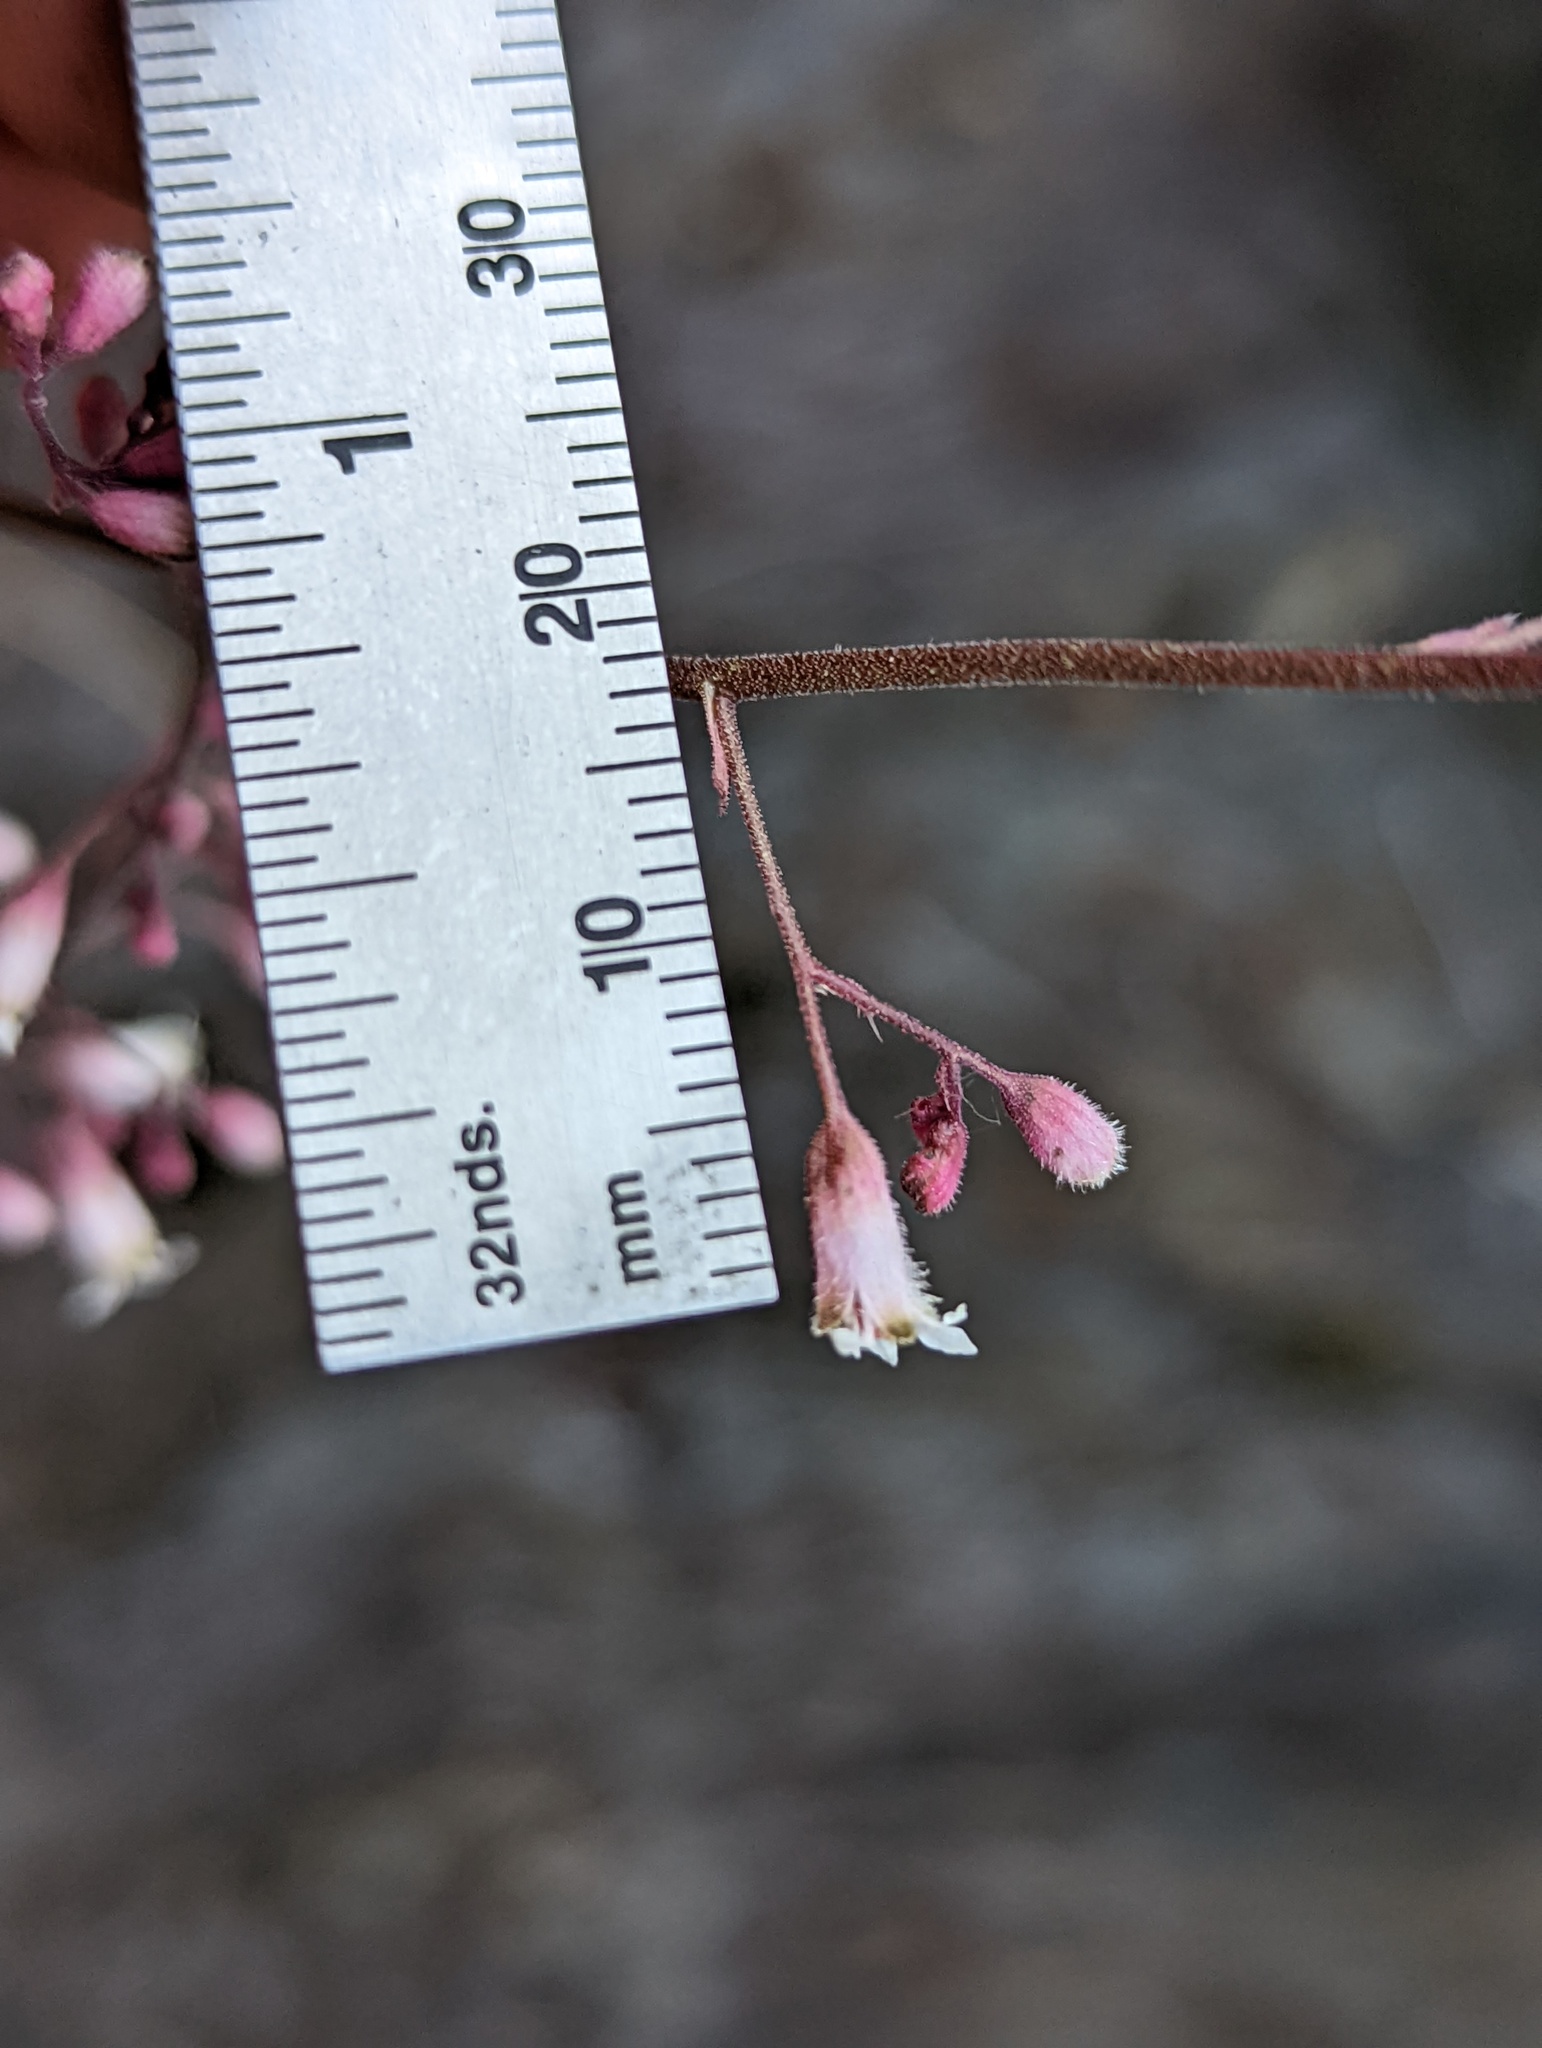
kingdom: Plantae
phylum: Tracheophyta
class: Magnoliopsida
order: Saxifragales
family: Saxifragaceae
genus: Heuchera
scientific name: Heuchera brevistaminea
